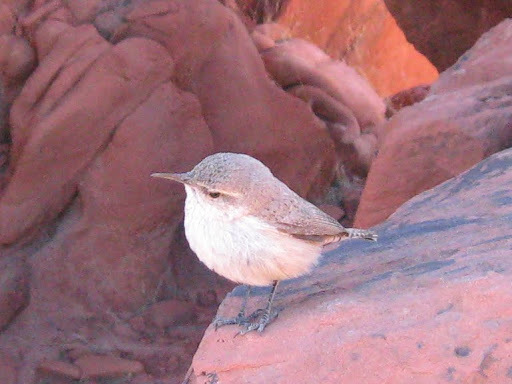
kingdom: Animalia
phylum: Chordata
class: Aves
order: Passeriformes
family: Troglodytidae
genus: Salpinctes
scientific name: Salpinctes obsoletus
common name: Rock wren
